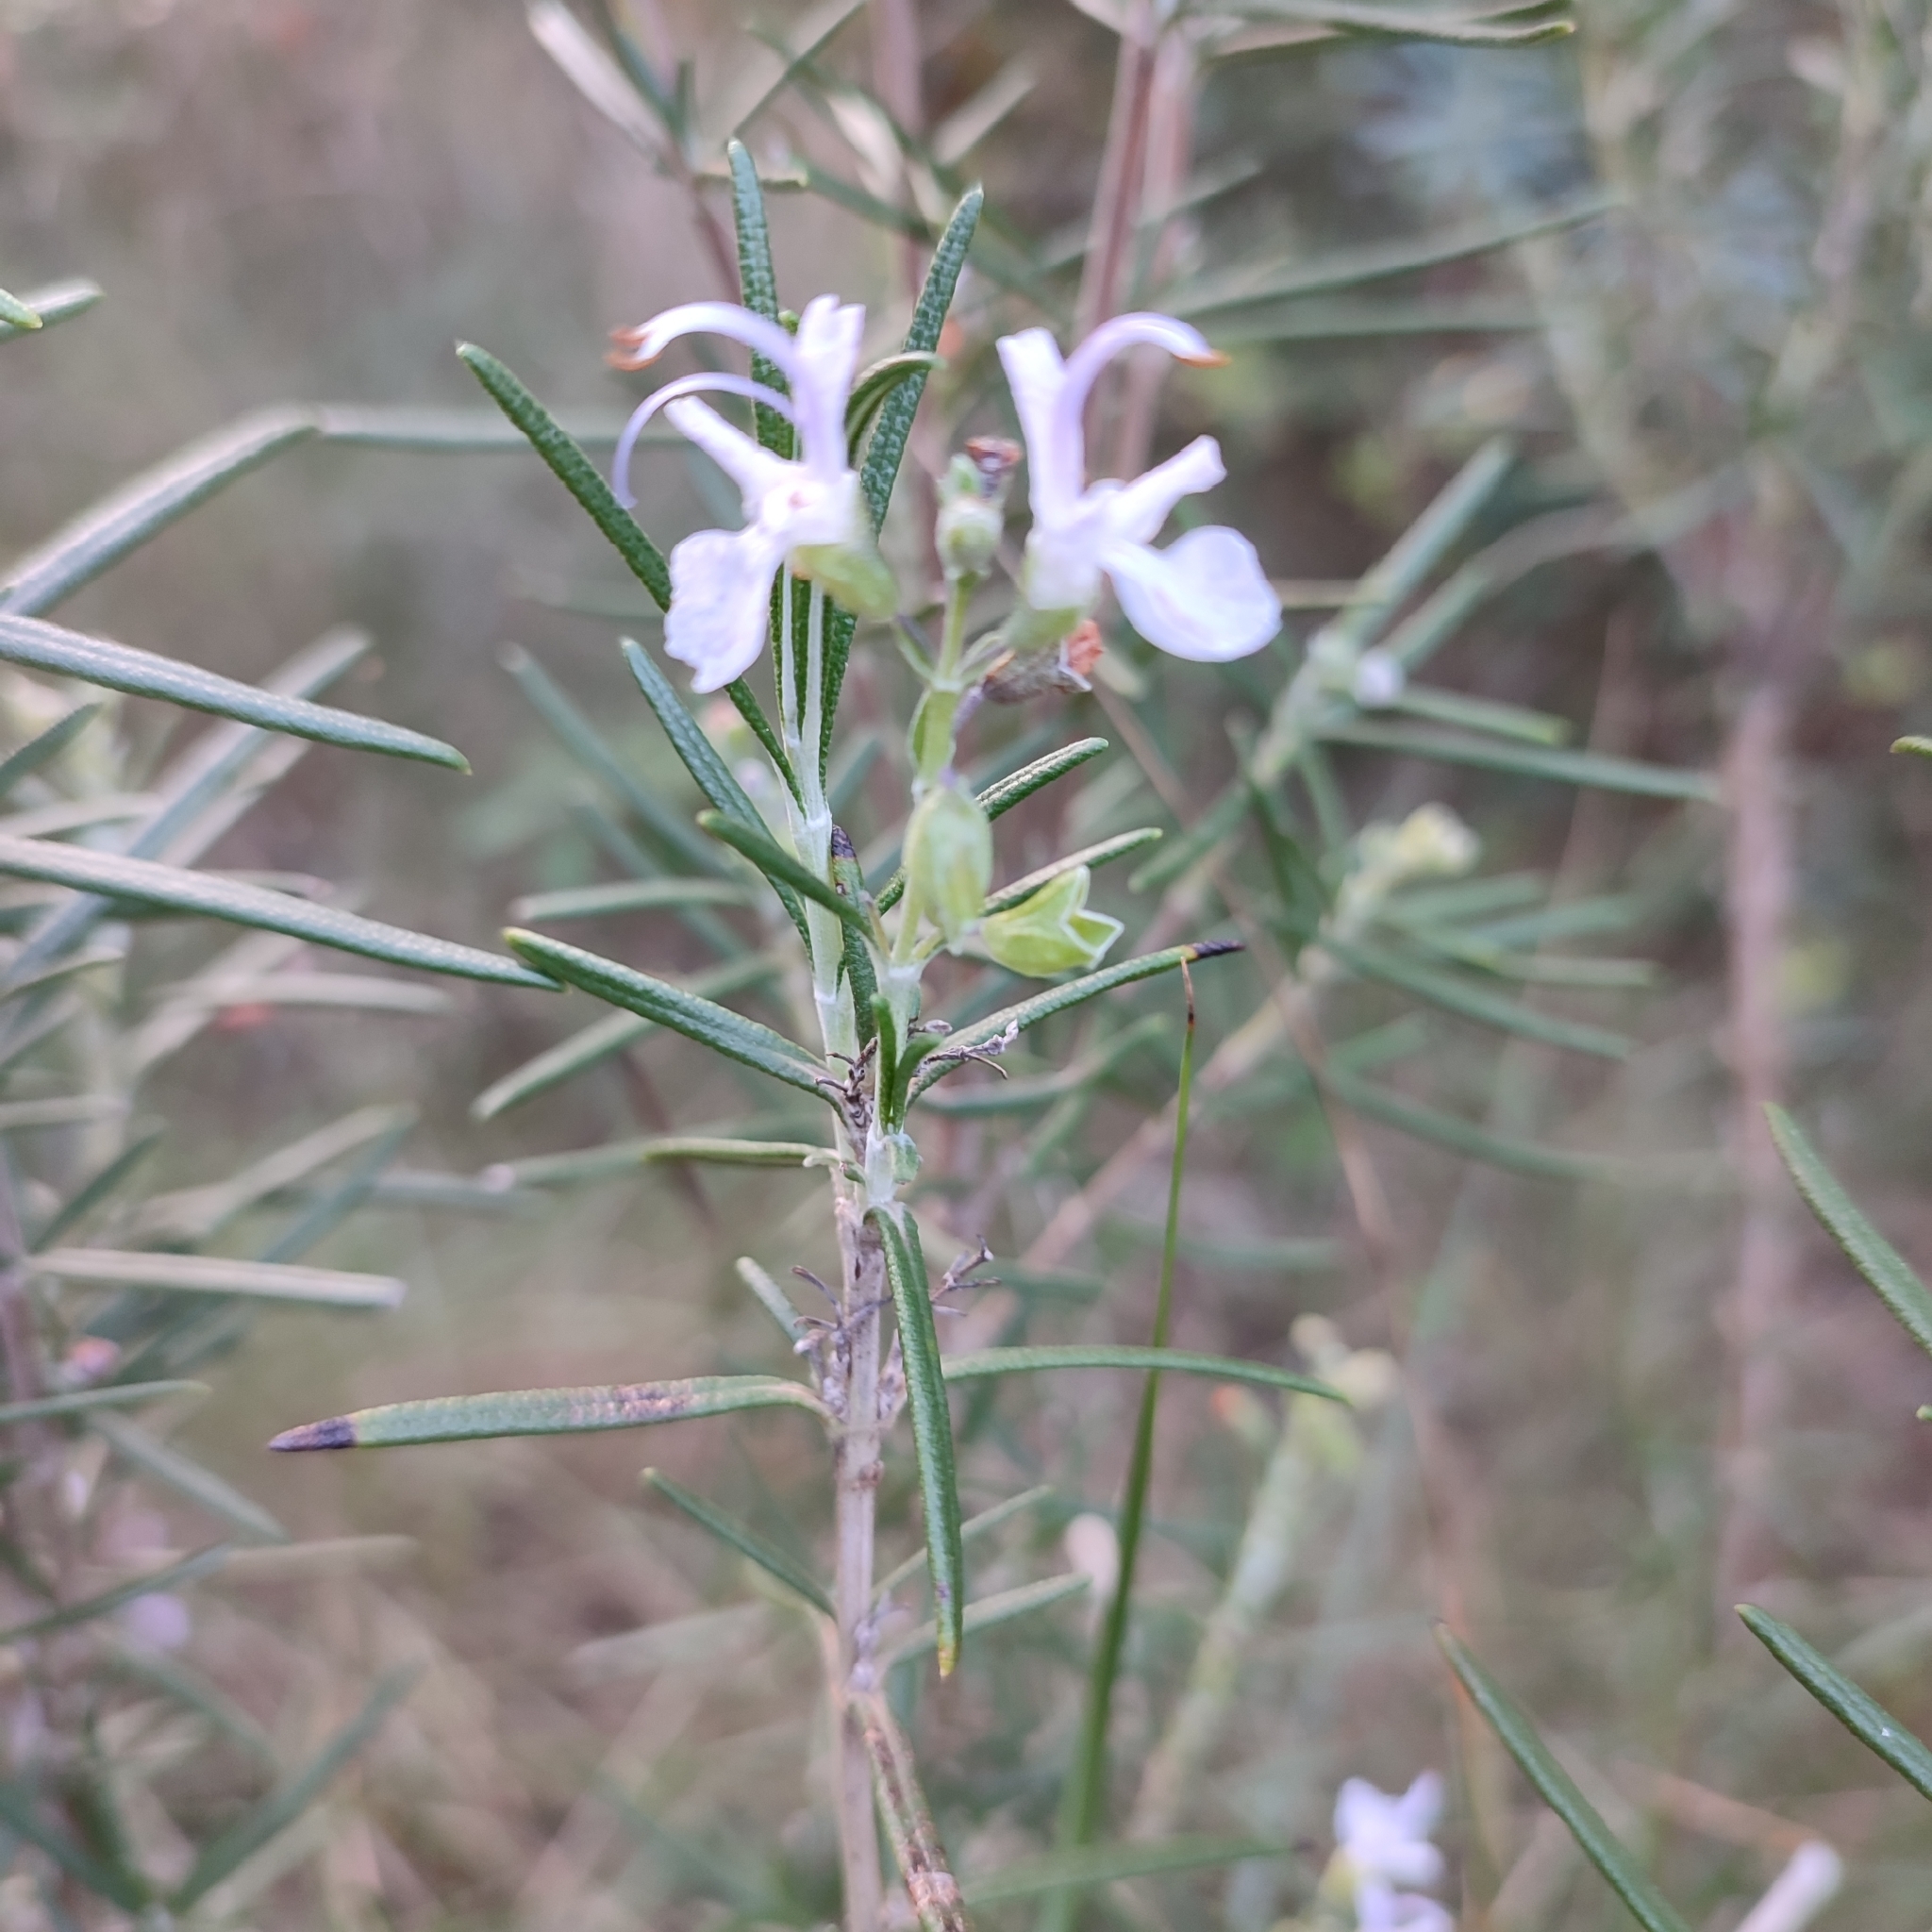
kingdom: Plantae
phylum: Tracheophyta
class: Magnoliopsida
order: Lamiales
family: Lamiaceae
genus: Salvia
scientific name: Salvia rosmarinus
